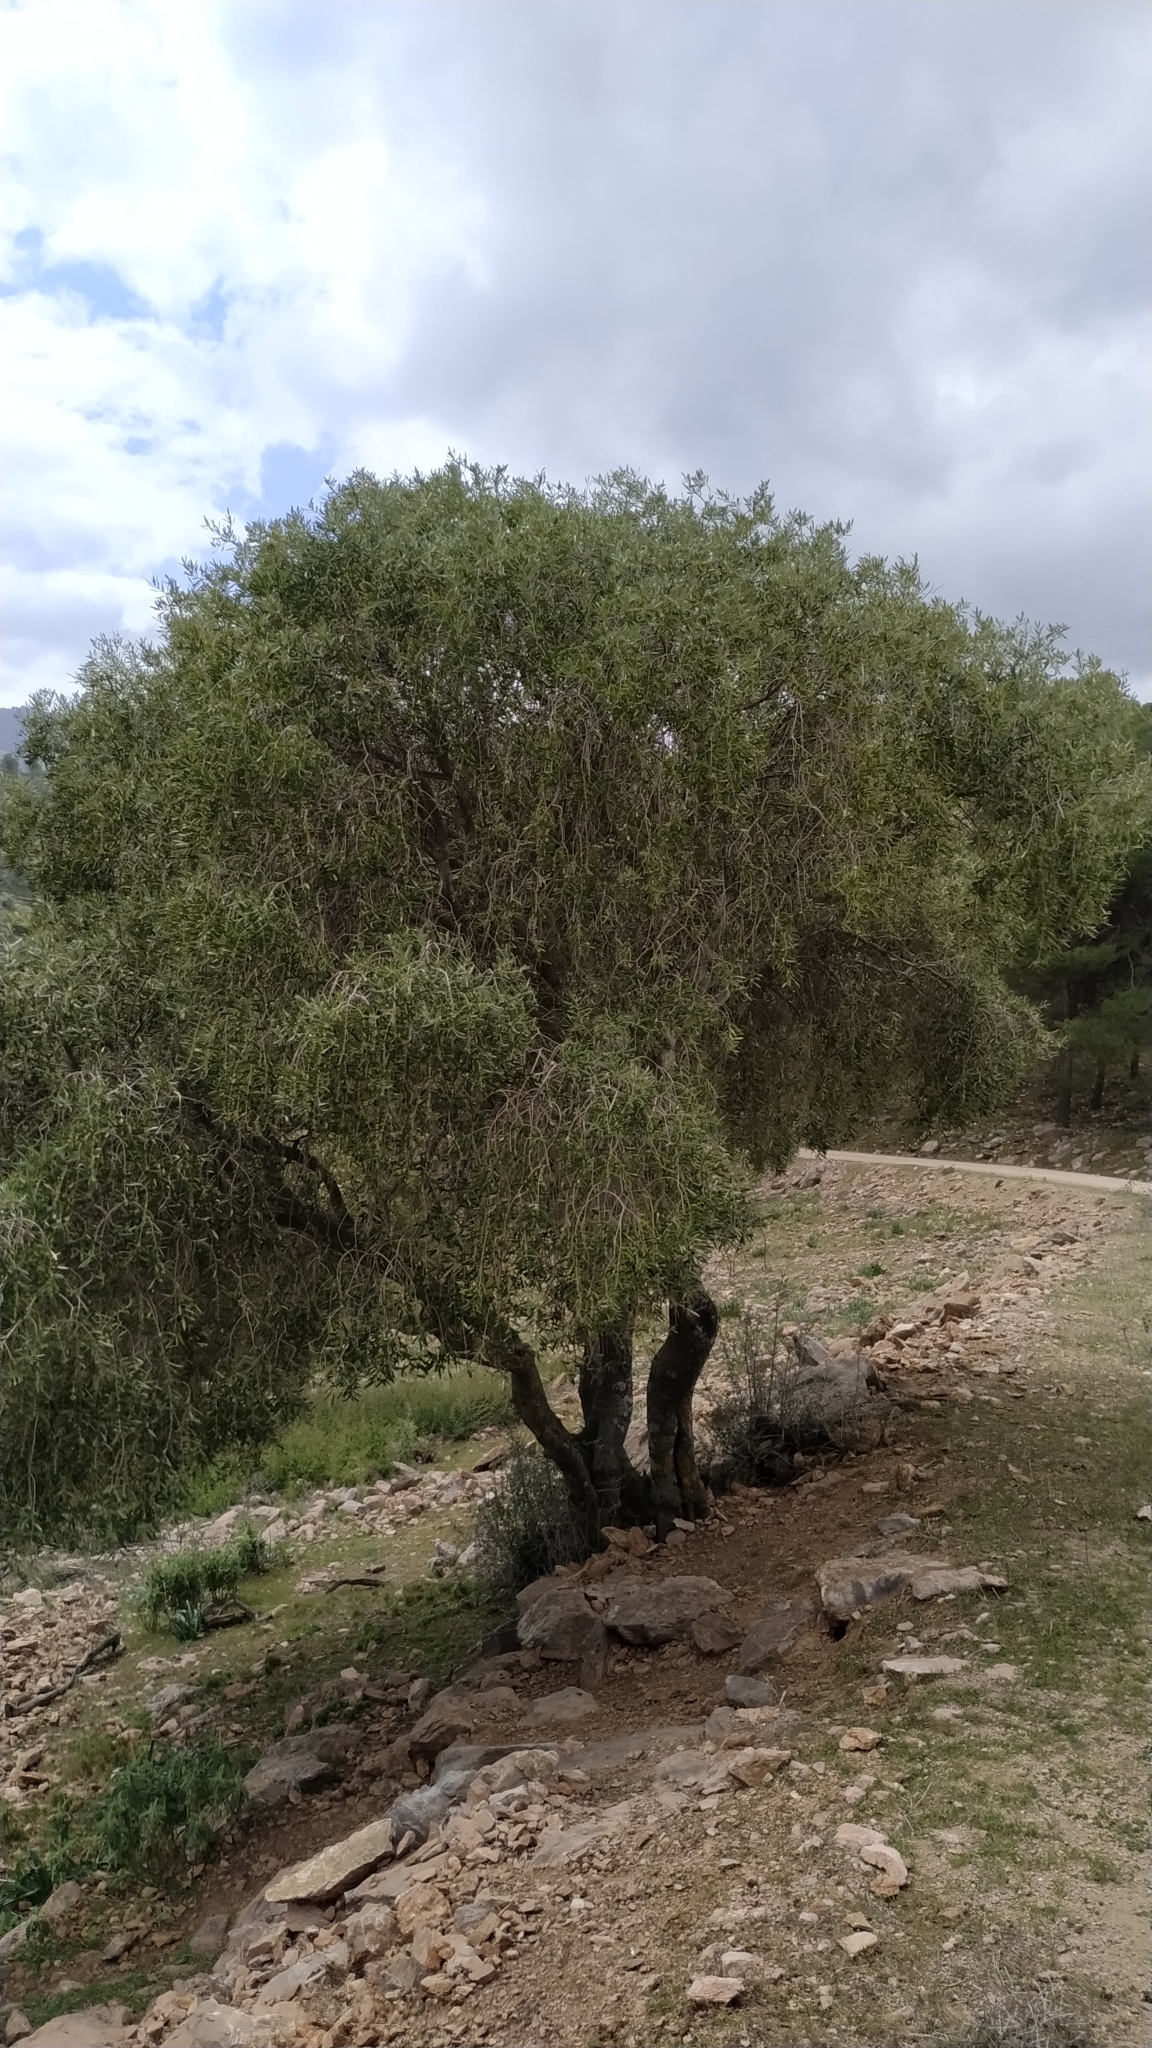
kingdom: Plantae
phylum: Tracheophyta
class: Magnoliopsida
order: Lamiales
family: Oleaceae
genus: Olea
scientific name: Olea europaea
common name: Olive
